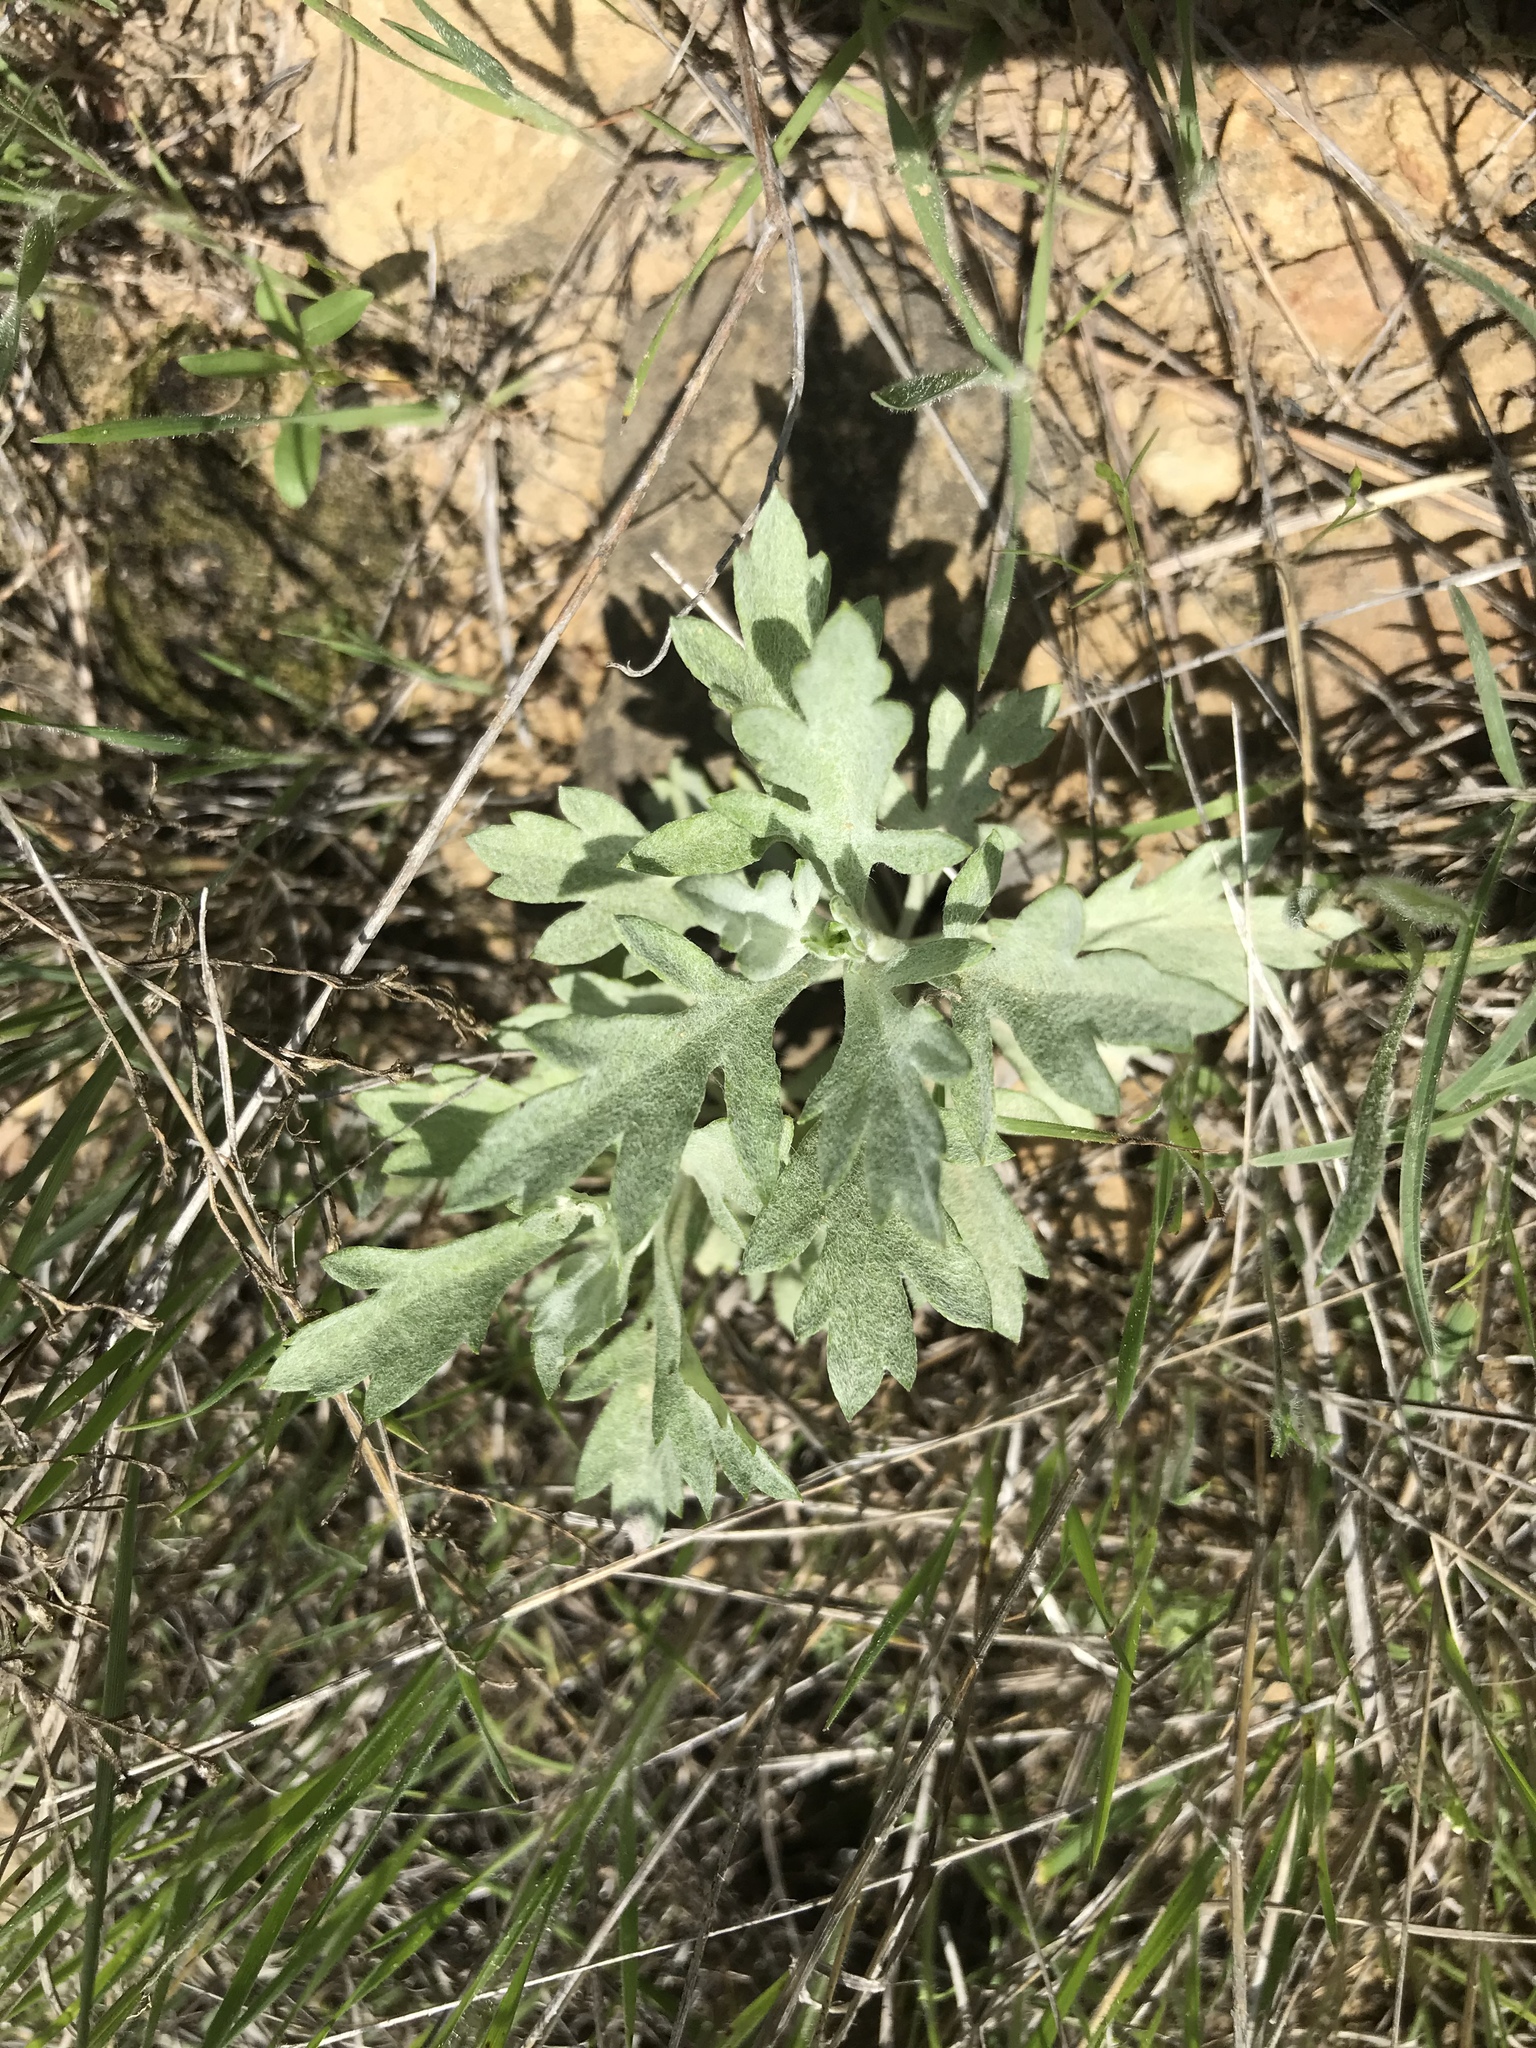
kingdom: Plantae
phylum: Tracheophyta
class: Magnoliopsida
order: Asterales
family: Asteraceae
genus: Artemisia
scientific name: Artemisia ludoviciana
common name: Western mugwort
